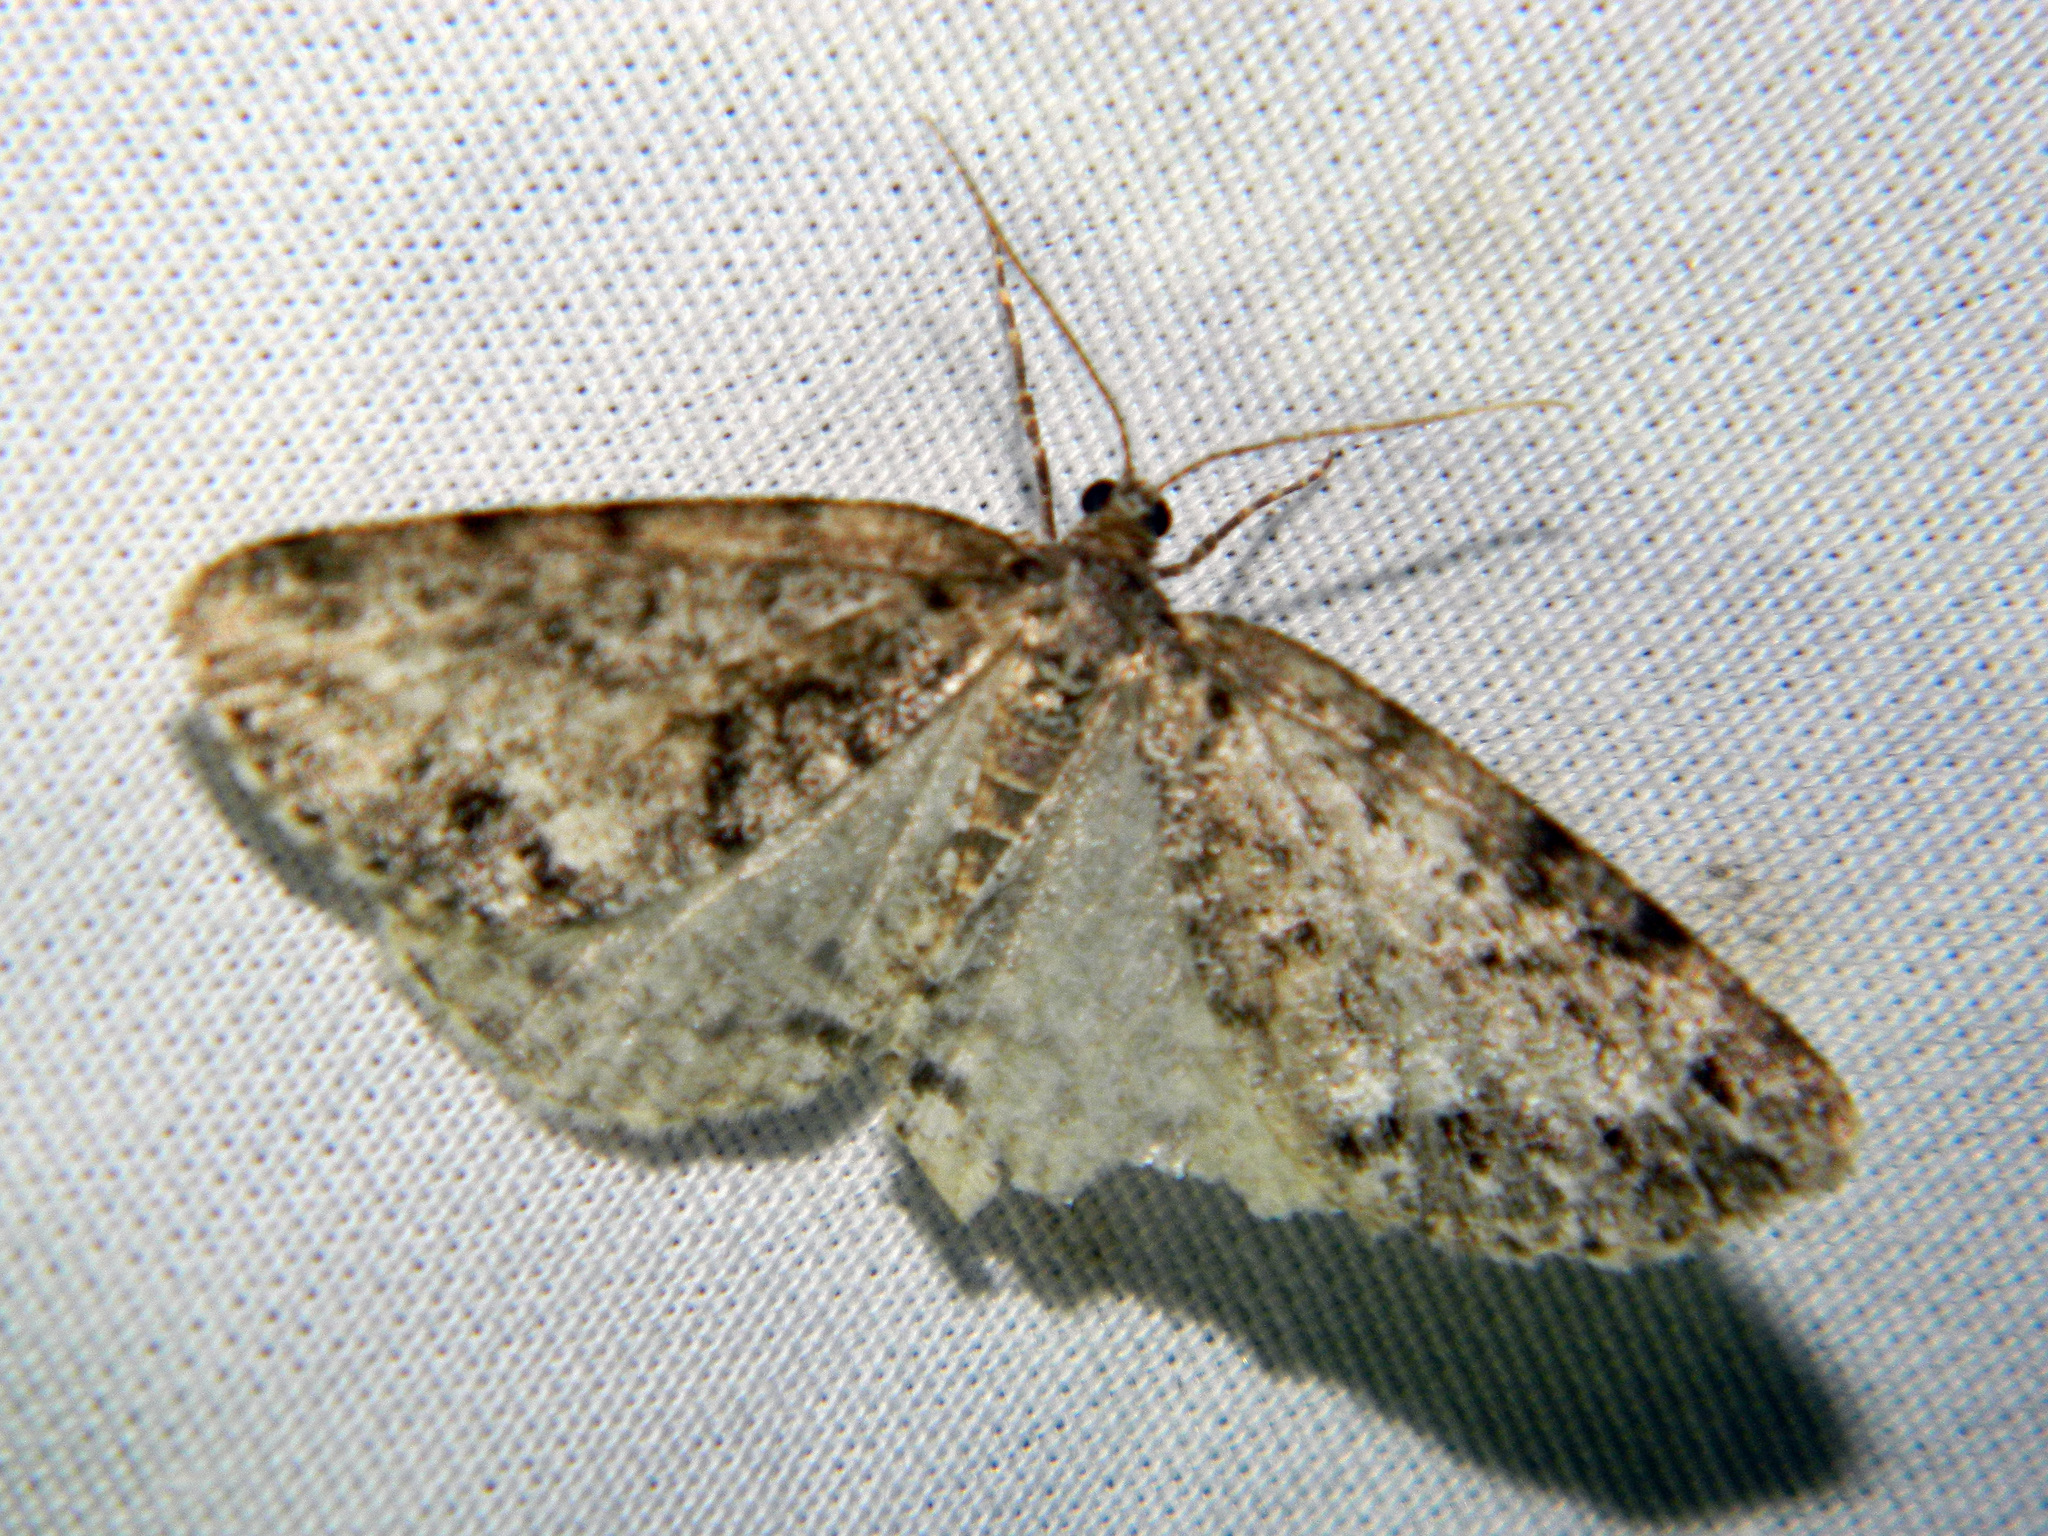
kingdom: Animalia
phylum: Arthropoda
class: Insecta
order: Lepidoptera
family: Geometridae
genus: Orthofidonia
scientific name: Orthofidonia exornata
